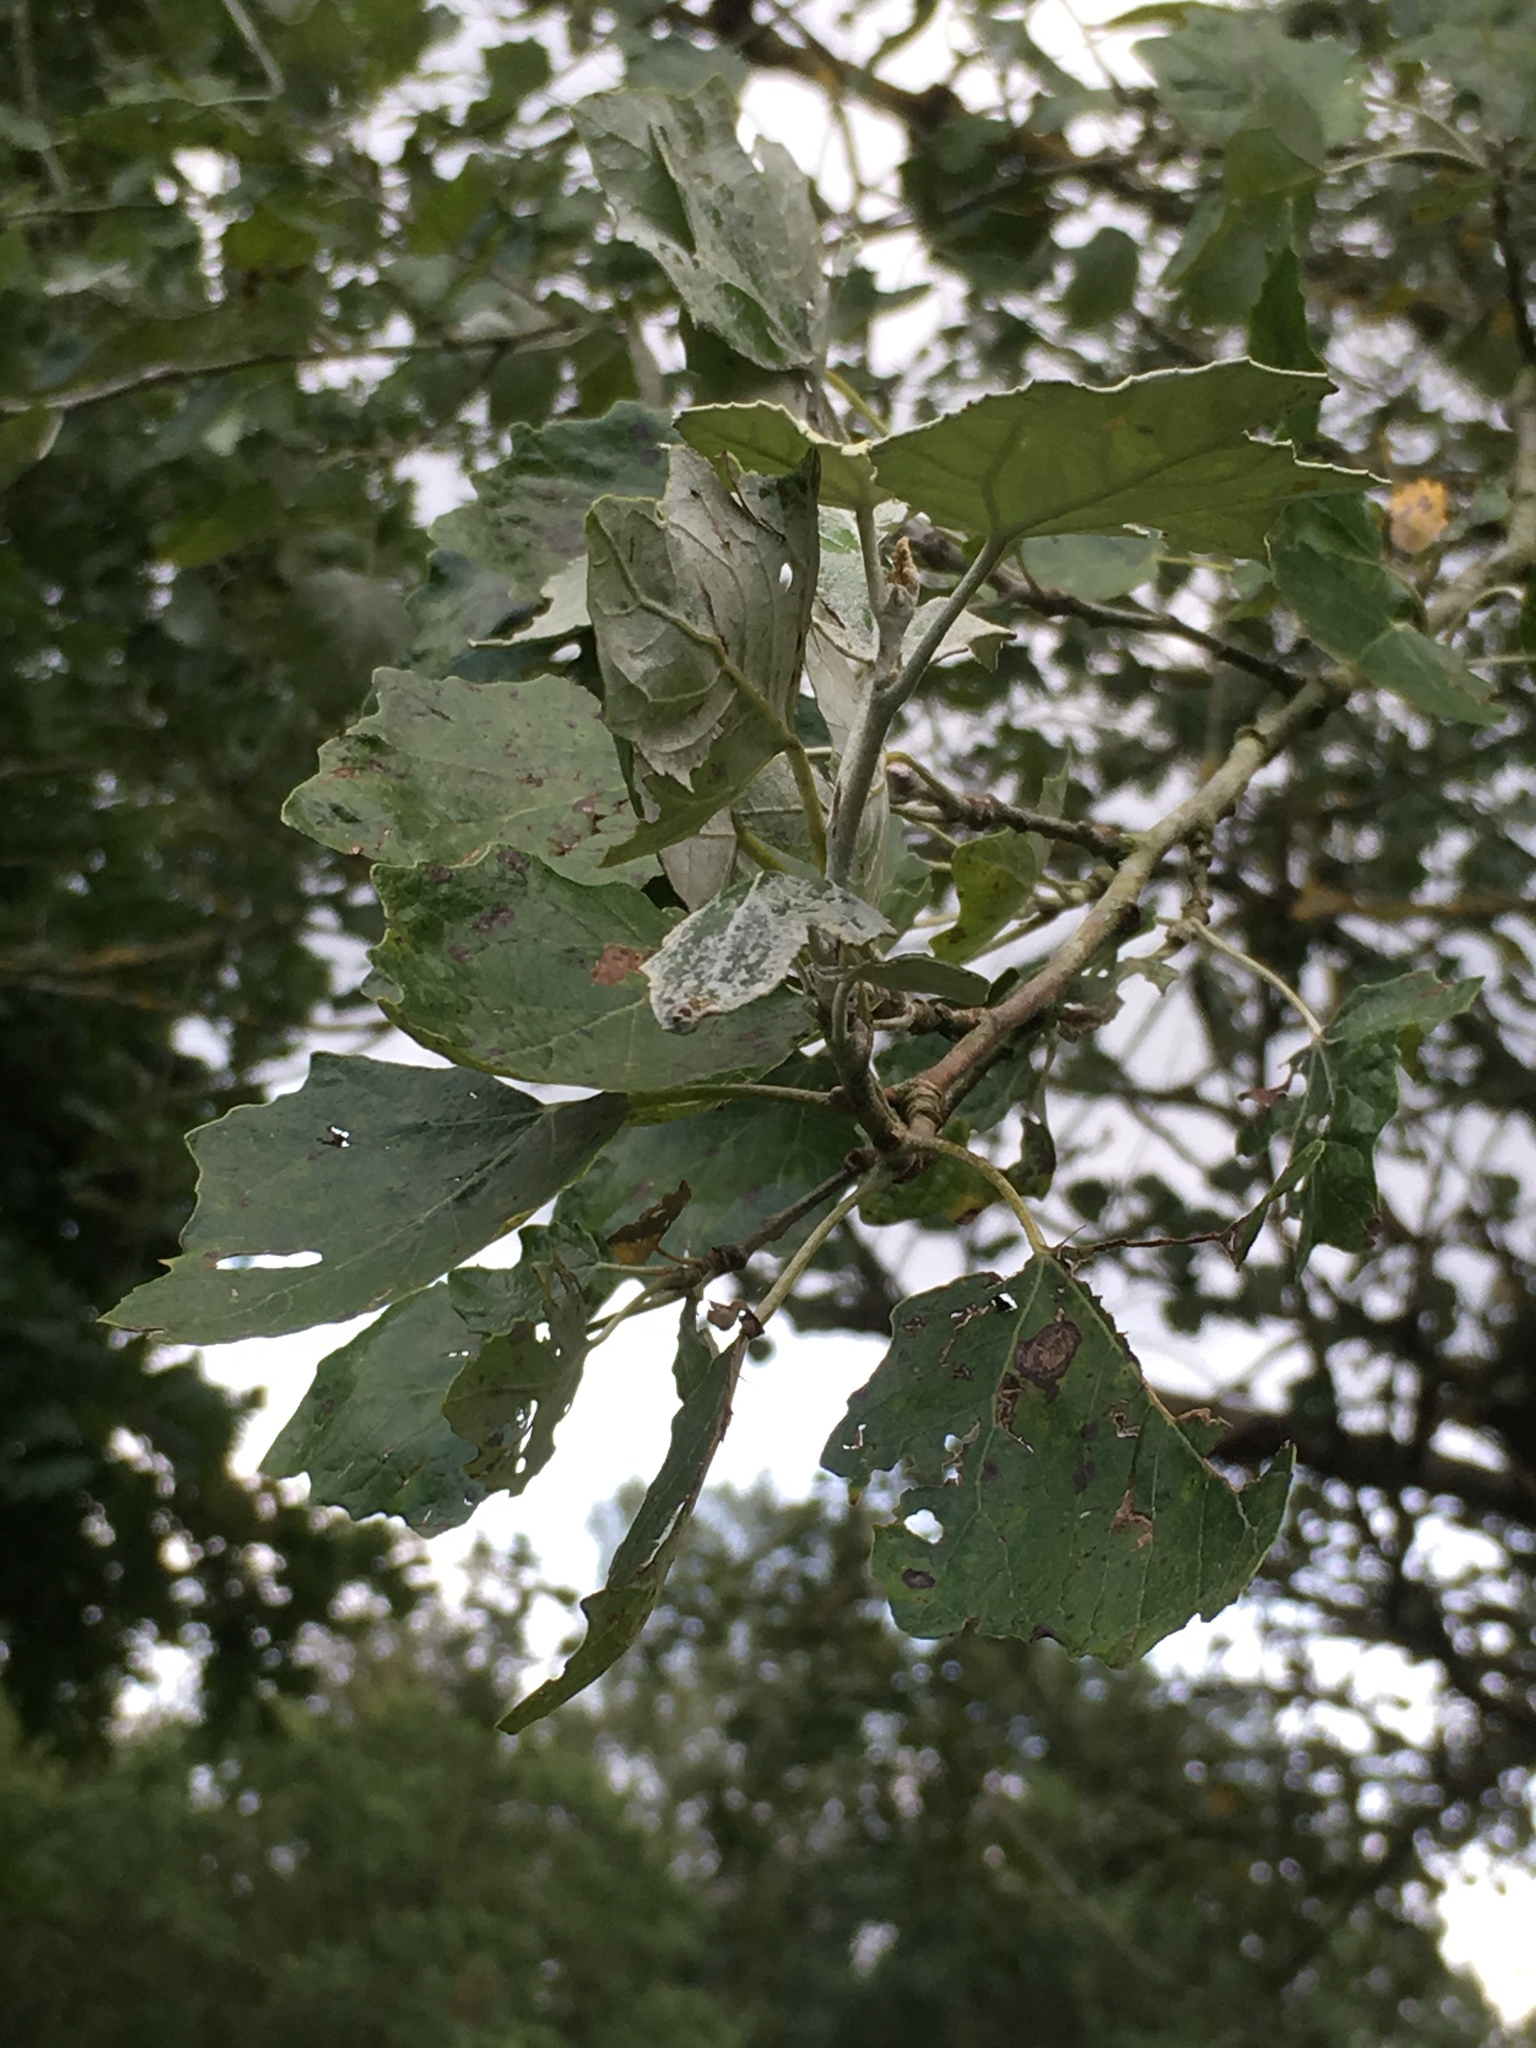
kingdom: Plantae
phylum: Tracheophyta
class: Magnoliopsida
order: Malpighiales
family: Salicaceae
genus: Populus
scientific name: Populus alba
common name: White poplar
